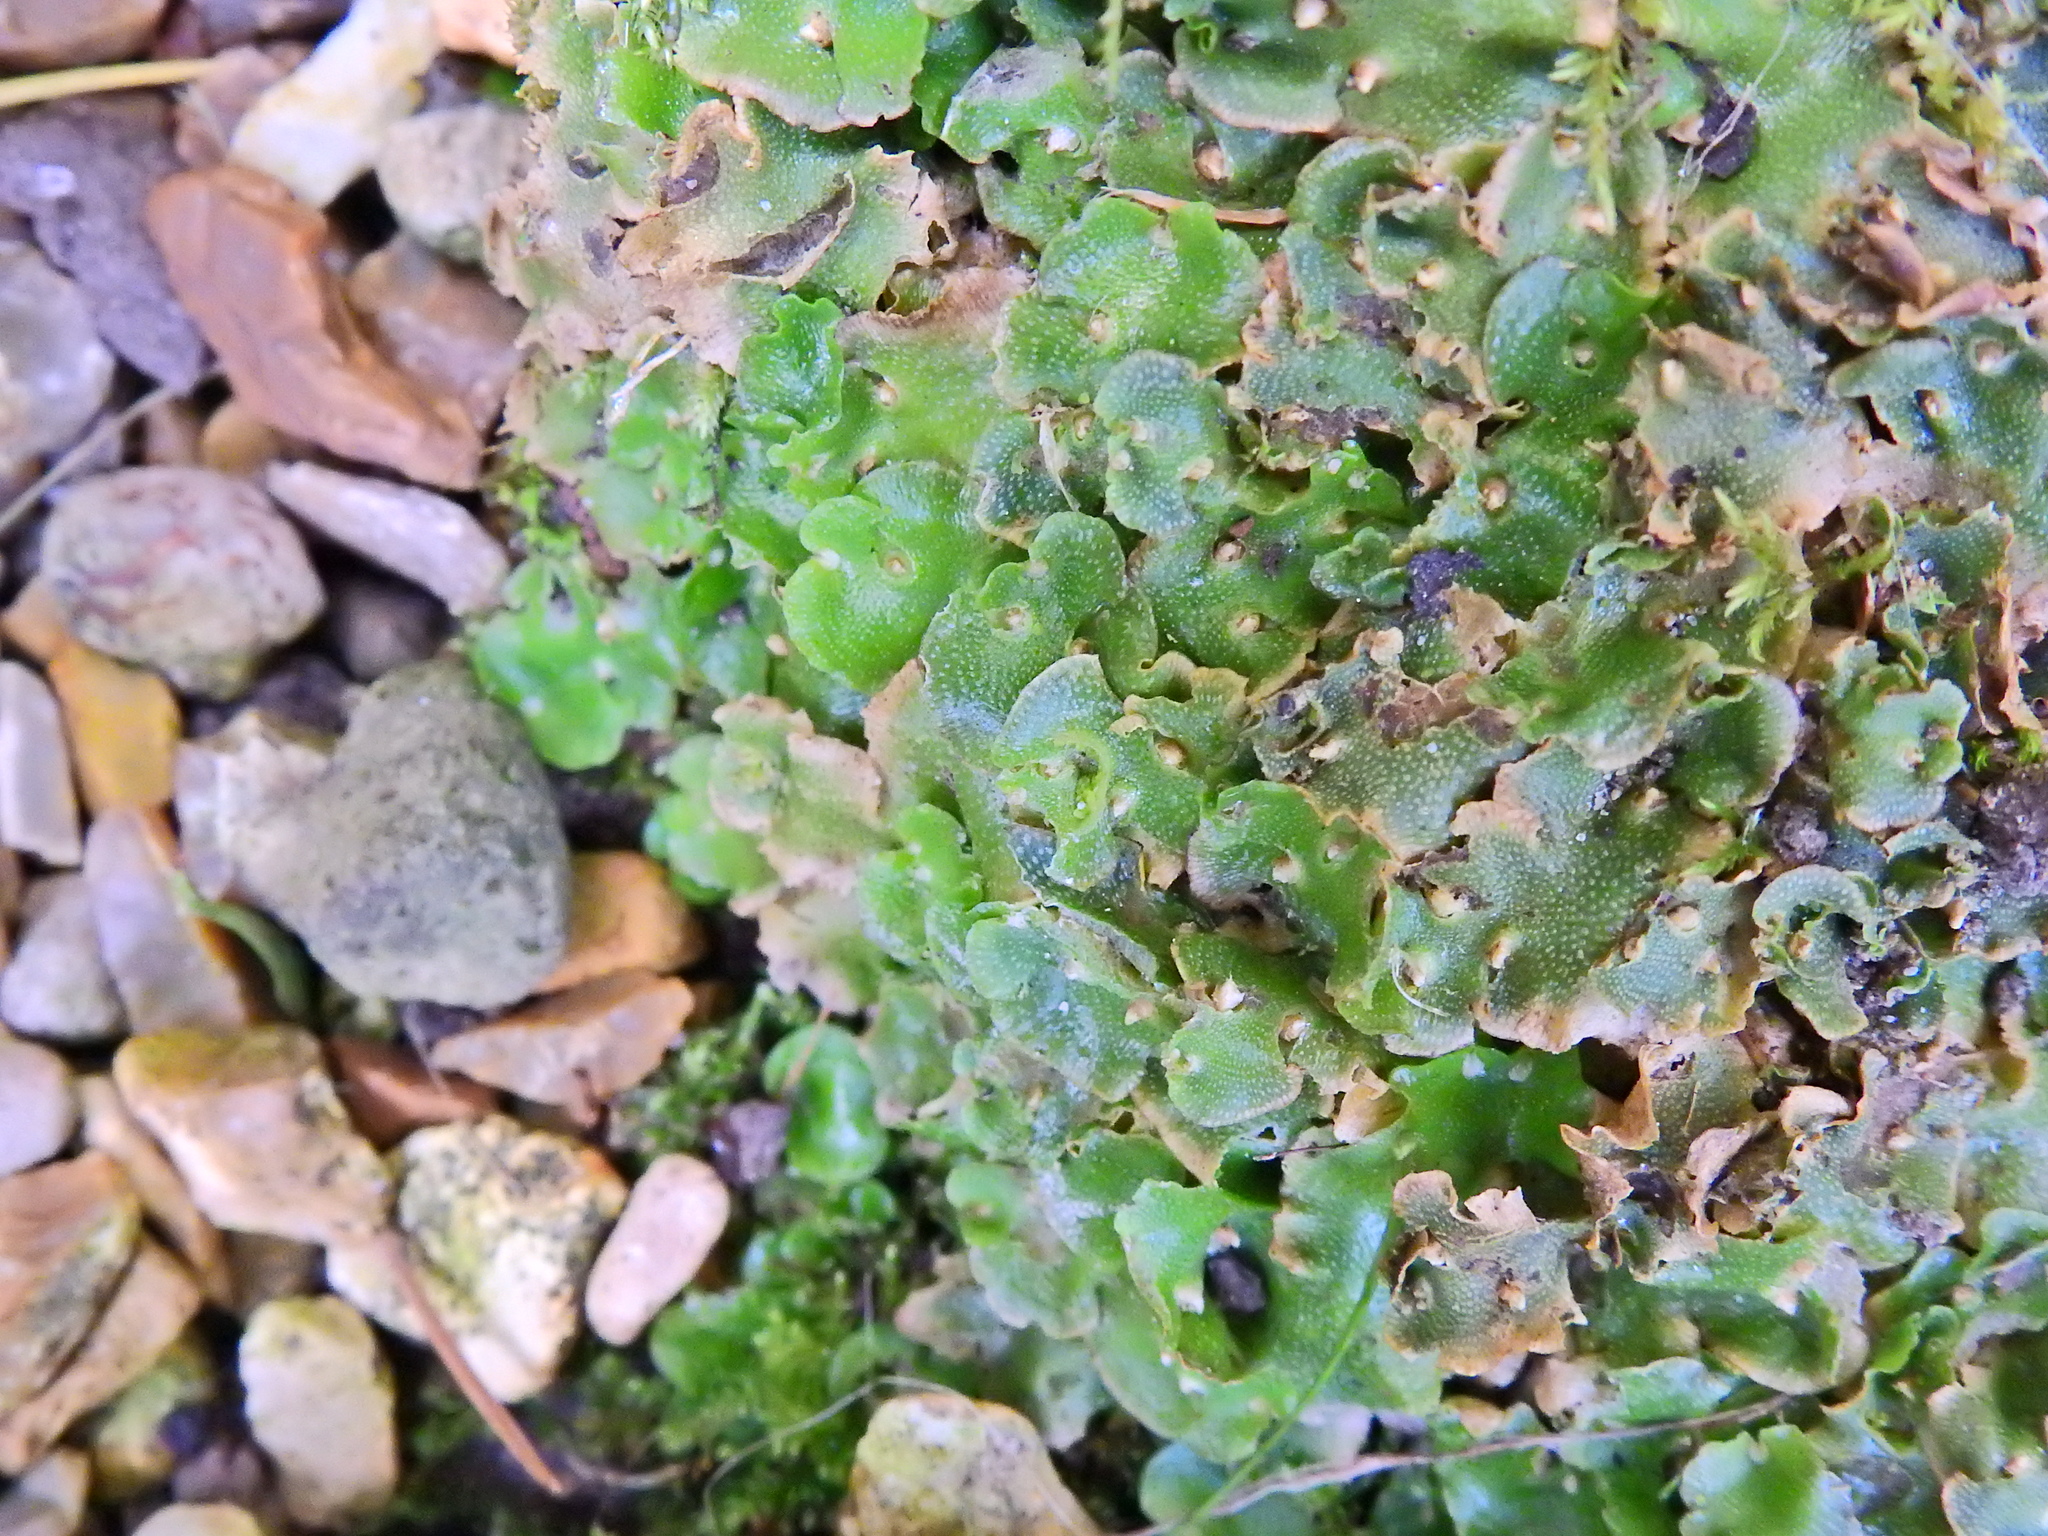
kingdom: Plantae
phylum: Marchantiophyta
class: Marchantiopsida
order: Lunulariales
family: Lunulariaceae
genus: Lunularia
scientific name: Lunularia cruciata
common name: Crescent-cup liverwort
